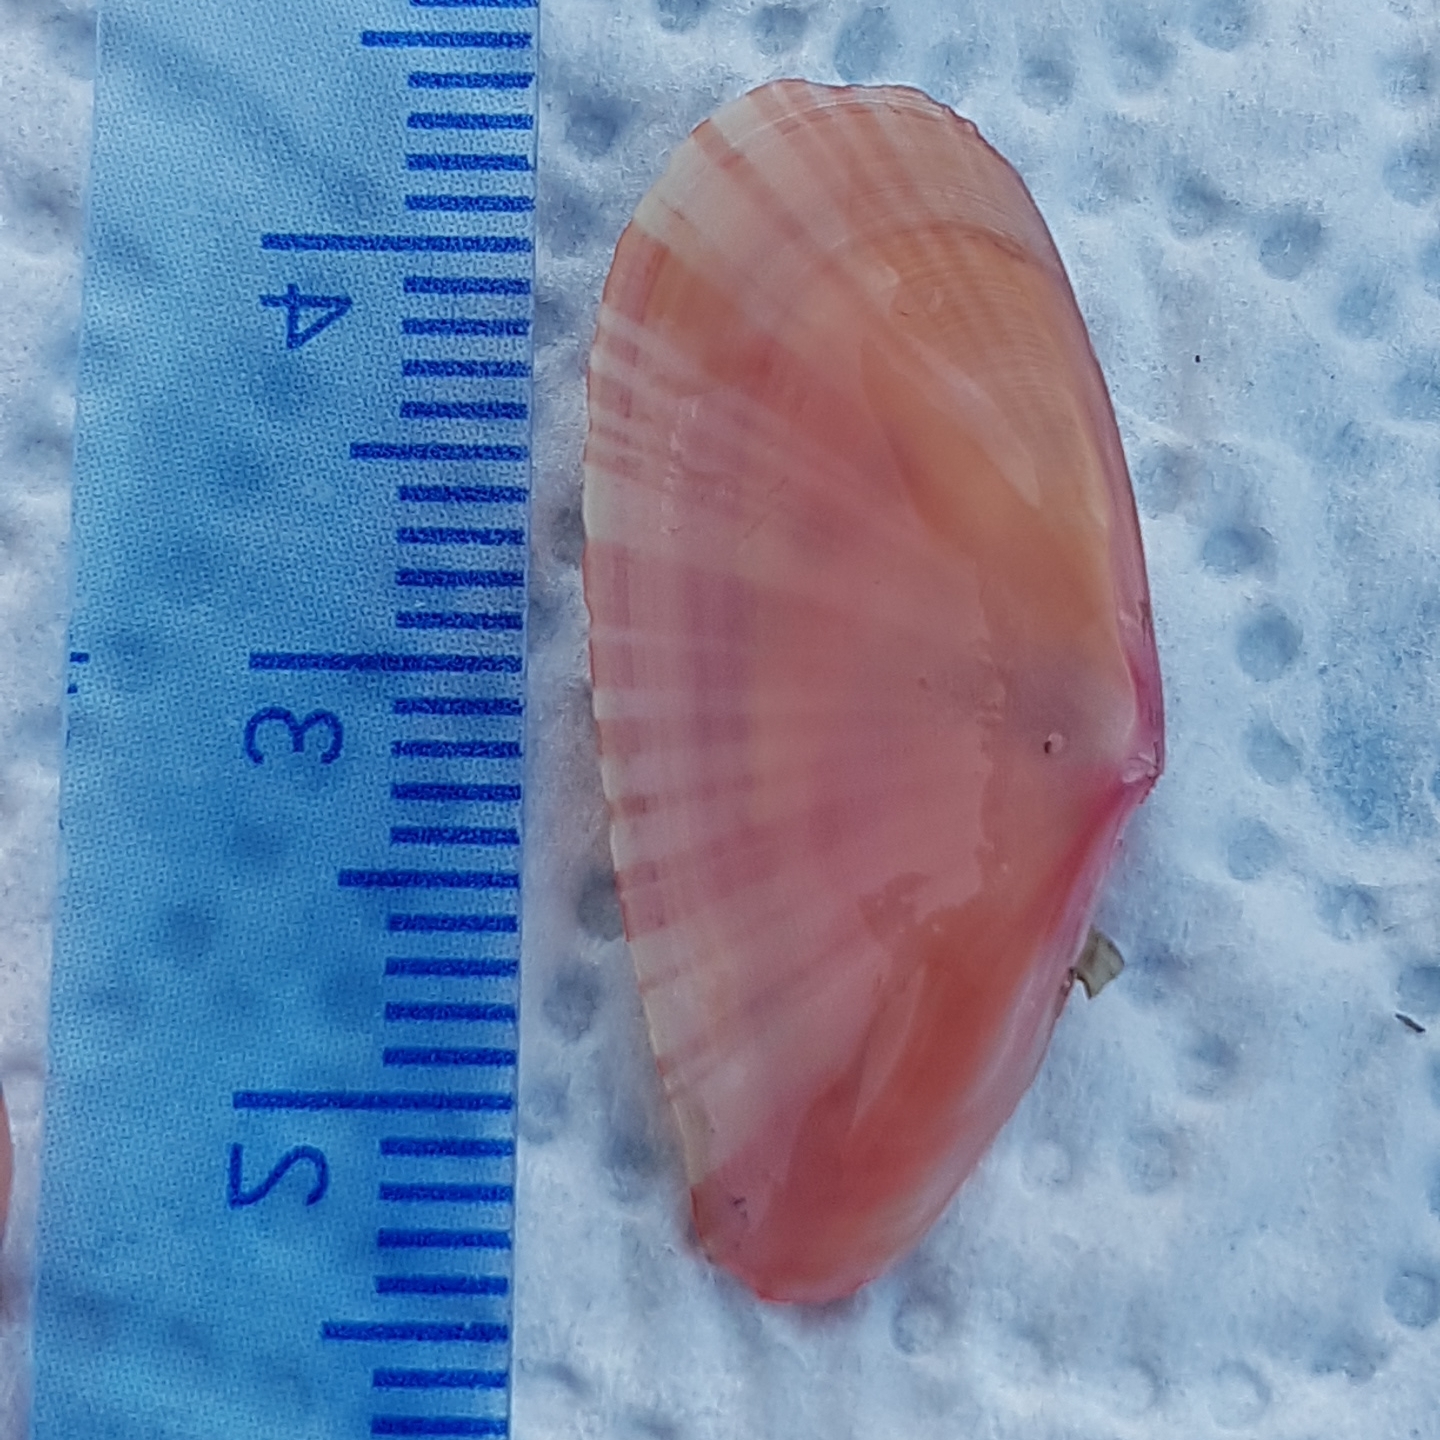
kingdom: Animalia
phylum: Mollusca
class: Bivalvia
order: Cardiida
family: Tellinidae
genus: Moerella
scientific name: Moerella pulchella
